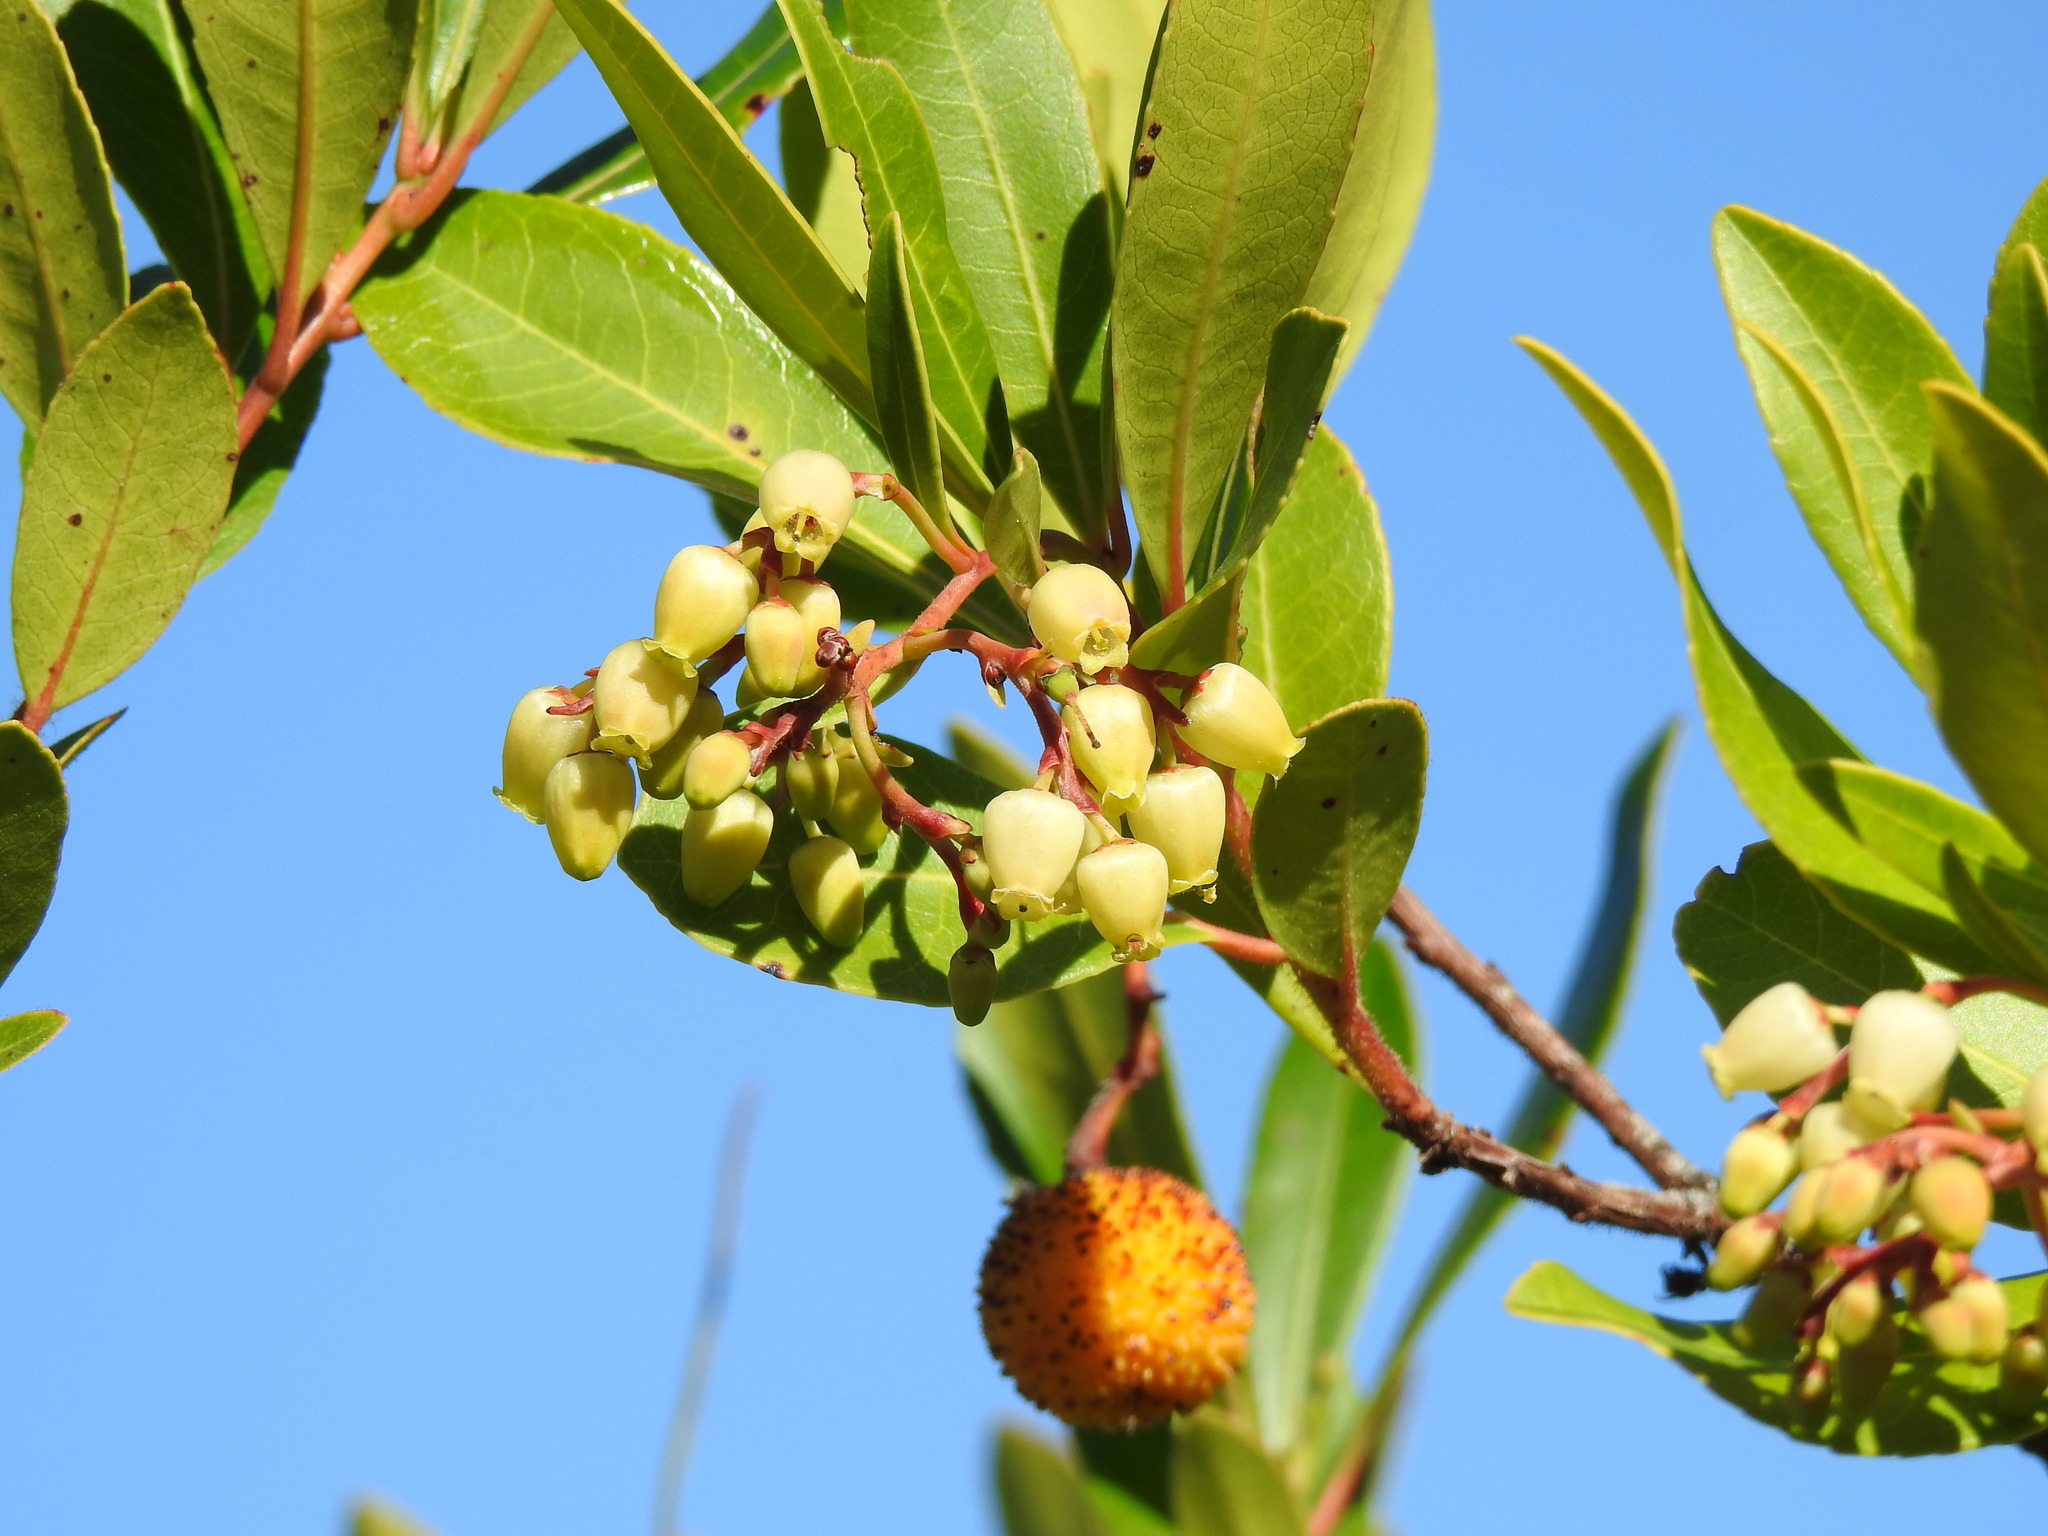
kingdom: Plantae
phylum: Tracheophyta
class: Magnoliopsida
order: Ericales
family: Ericaceae
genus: Arbutus
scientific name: Arbutus unedo
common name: Strawberry-tree
